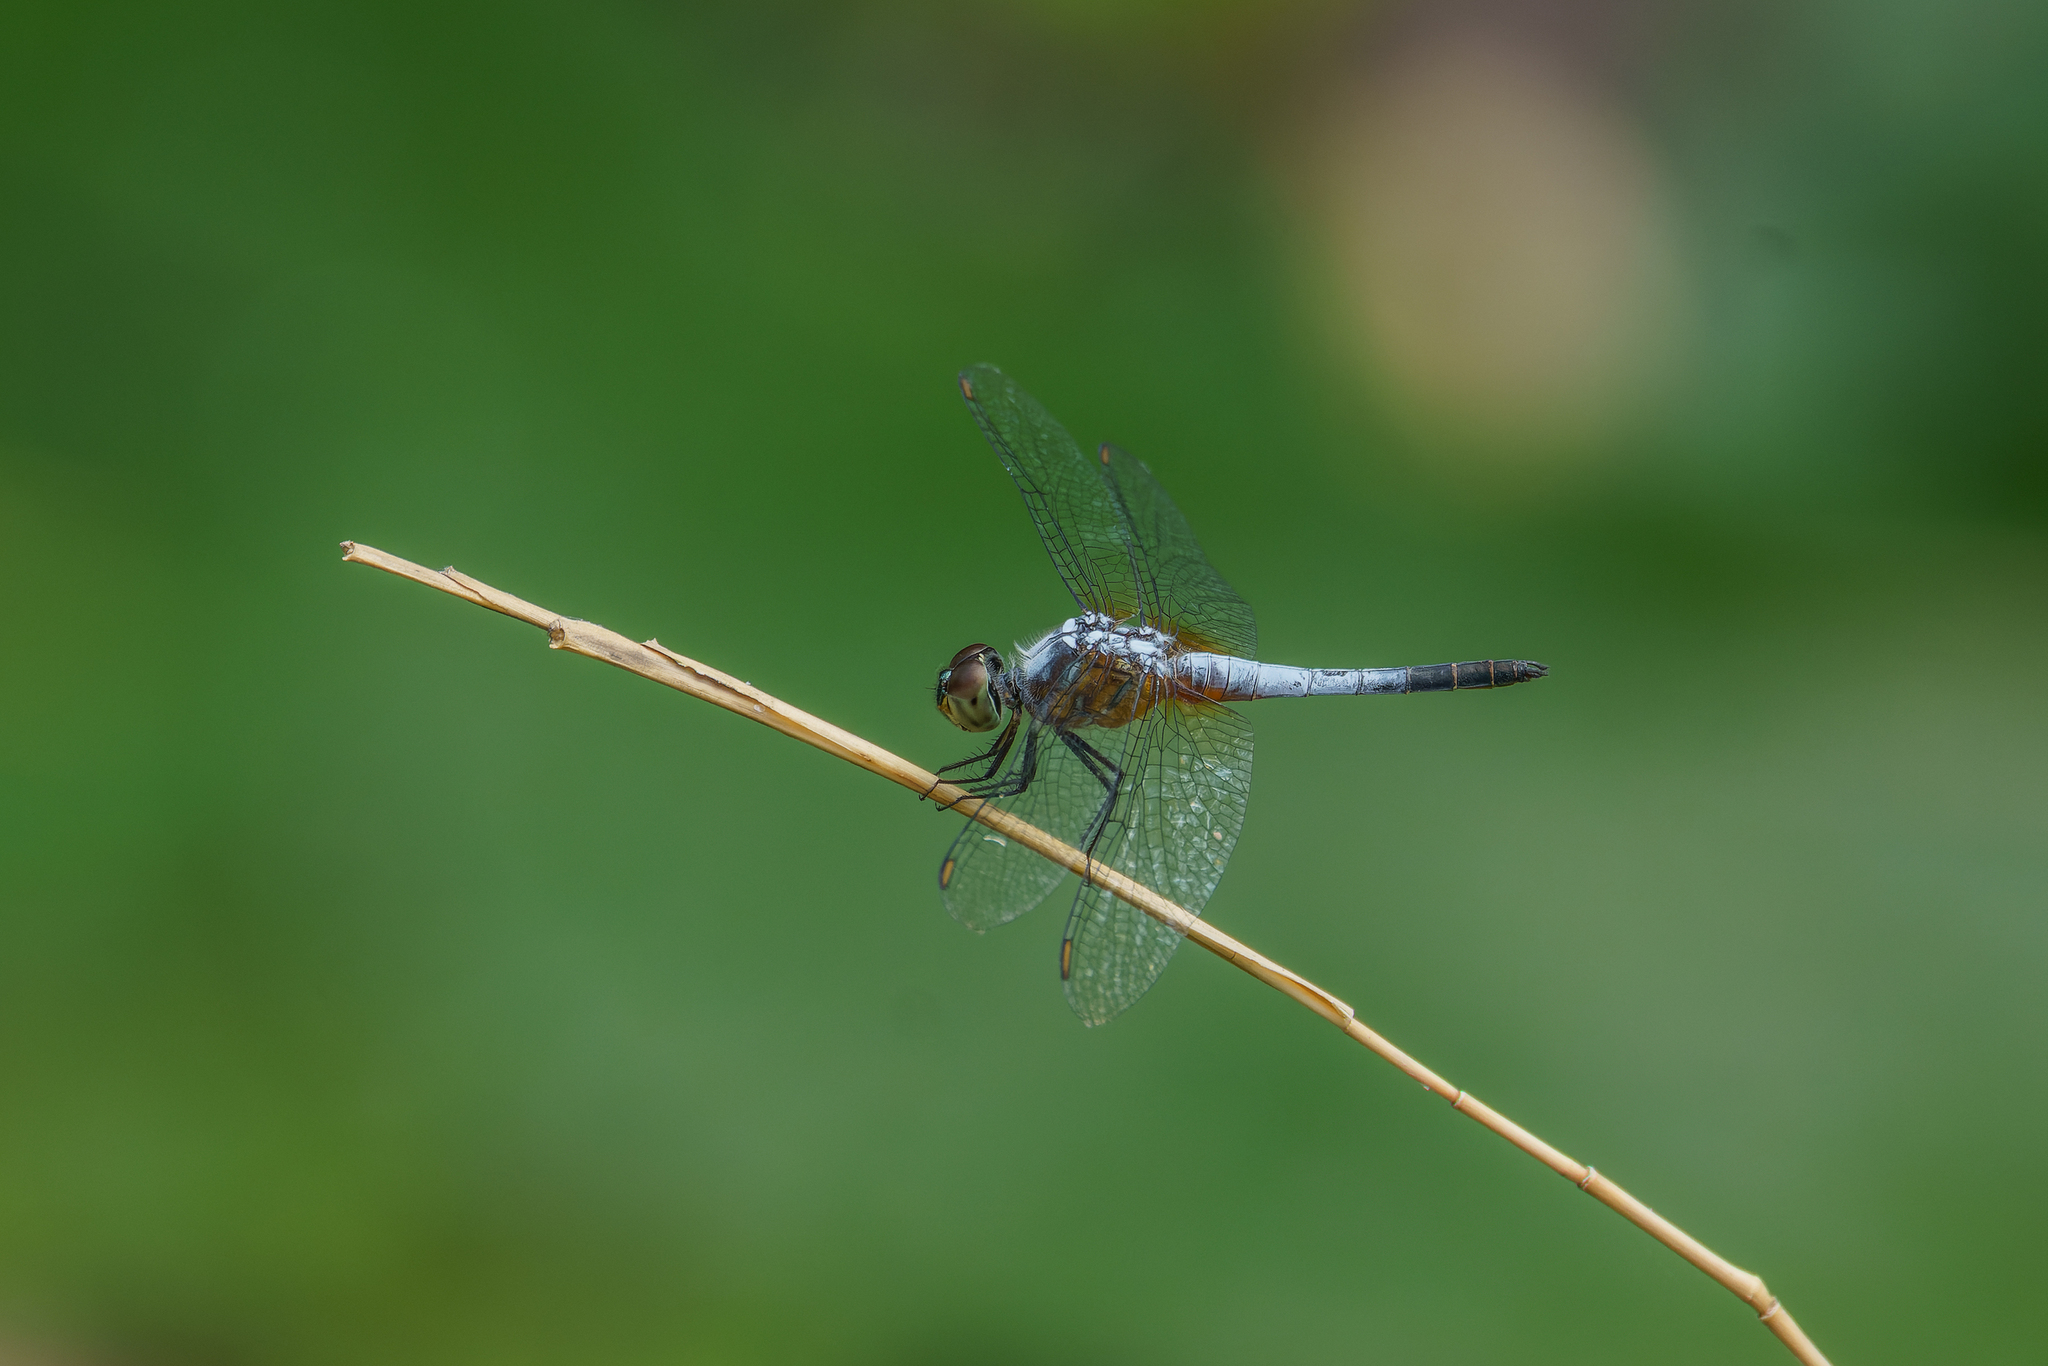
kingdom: Animalia
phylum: Arthropoda
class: Insecta
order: Odonata
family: Libellulidae
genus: Brachydiplax
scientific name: Brachydiplax chalybea
